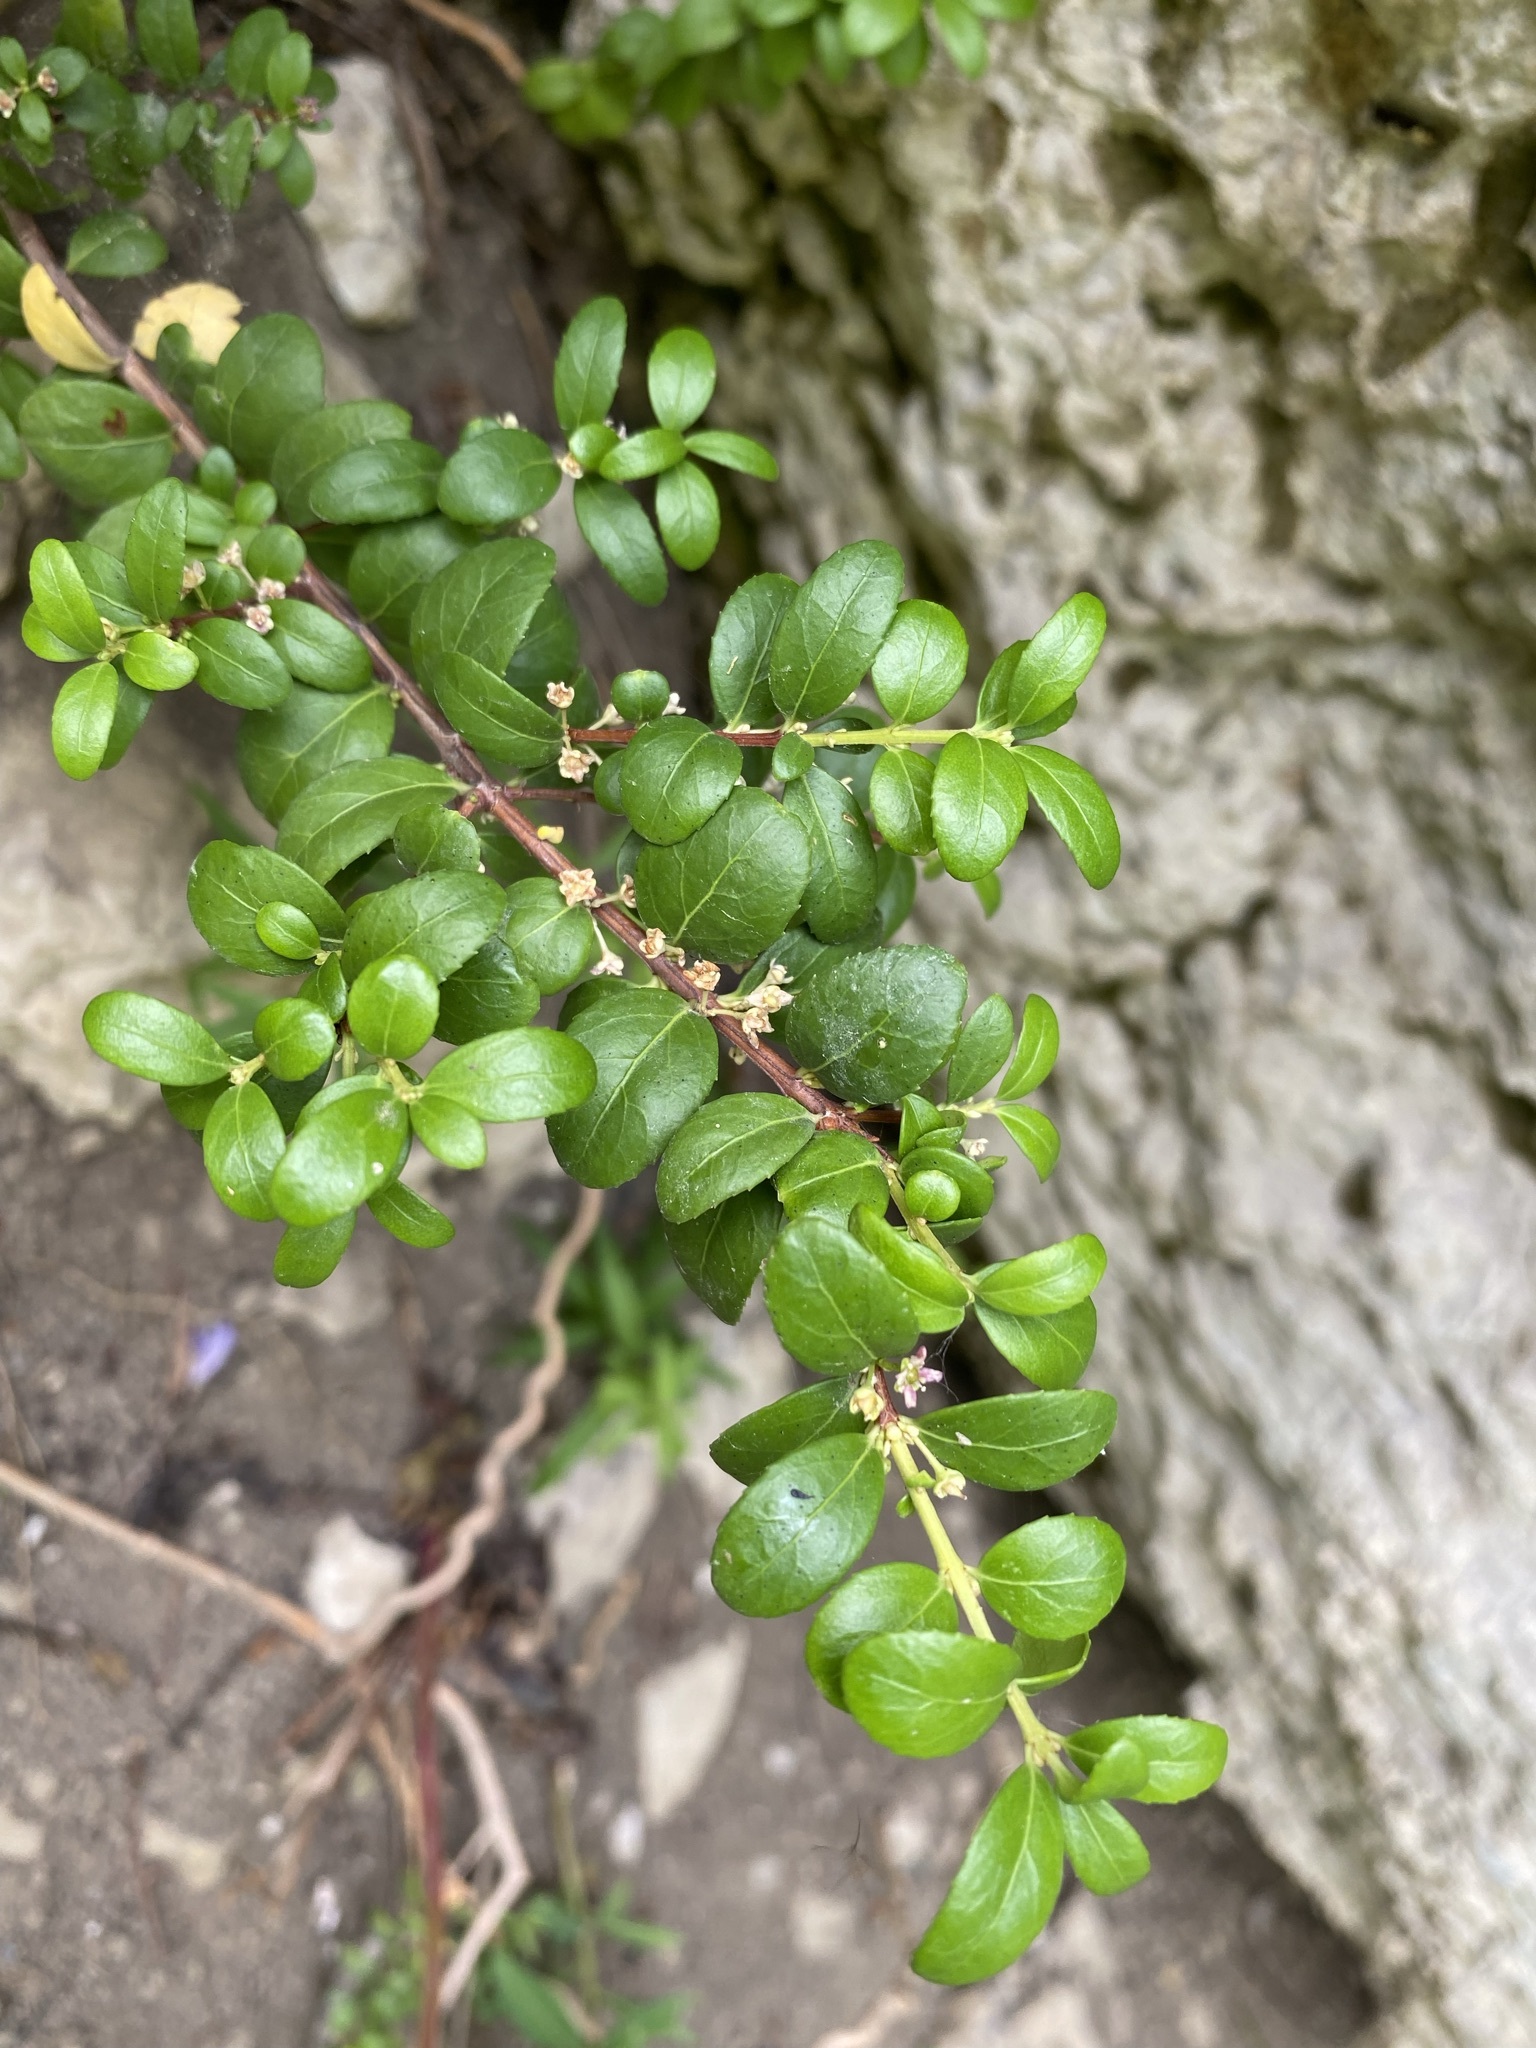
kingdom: Plantae
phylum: Tracheophyta
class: Magnoliopsida
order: Celastrales
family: Celastraceae
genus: Paxistima
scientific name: Paxistima myrsinites
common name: Mountain-lover
